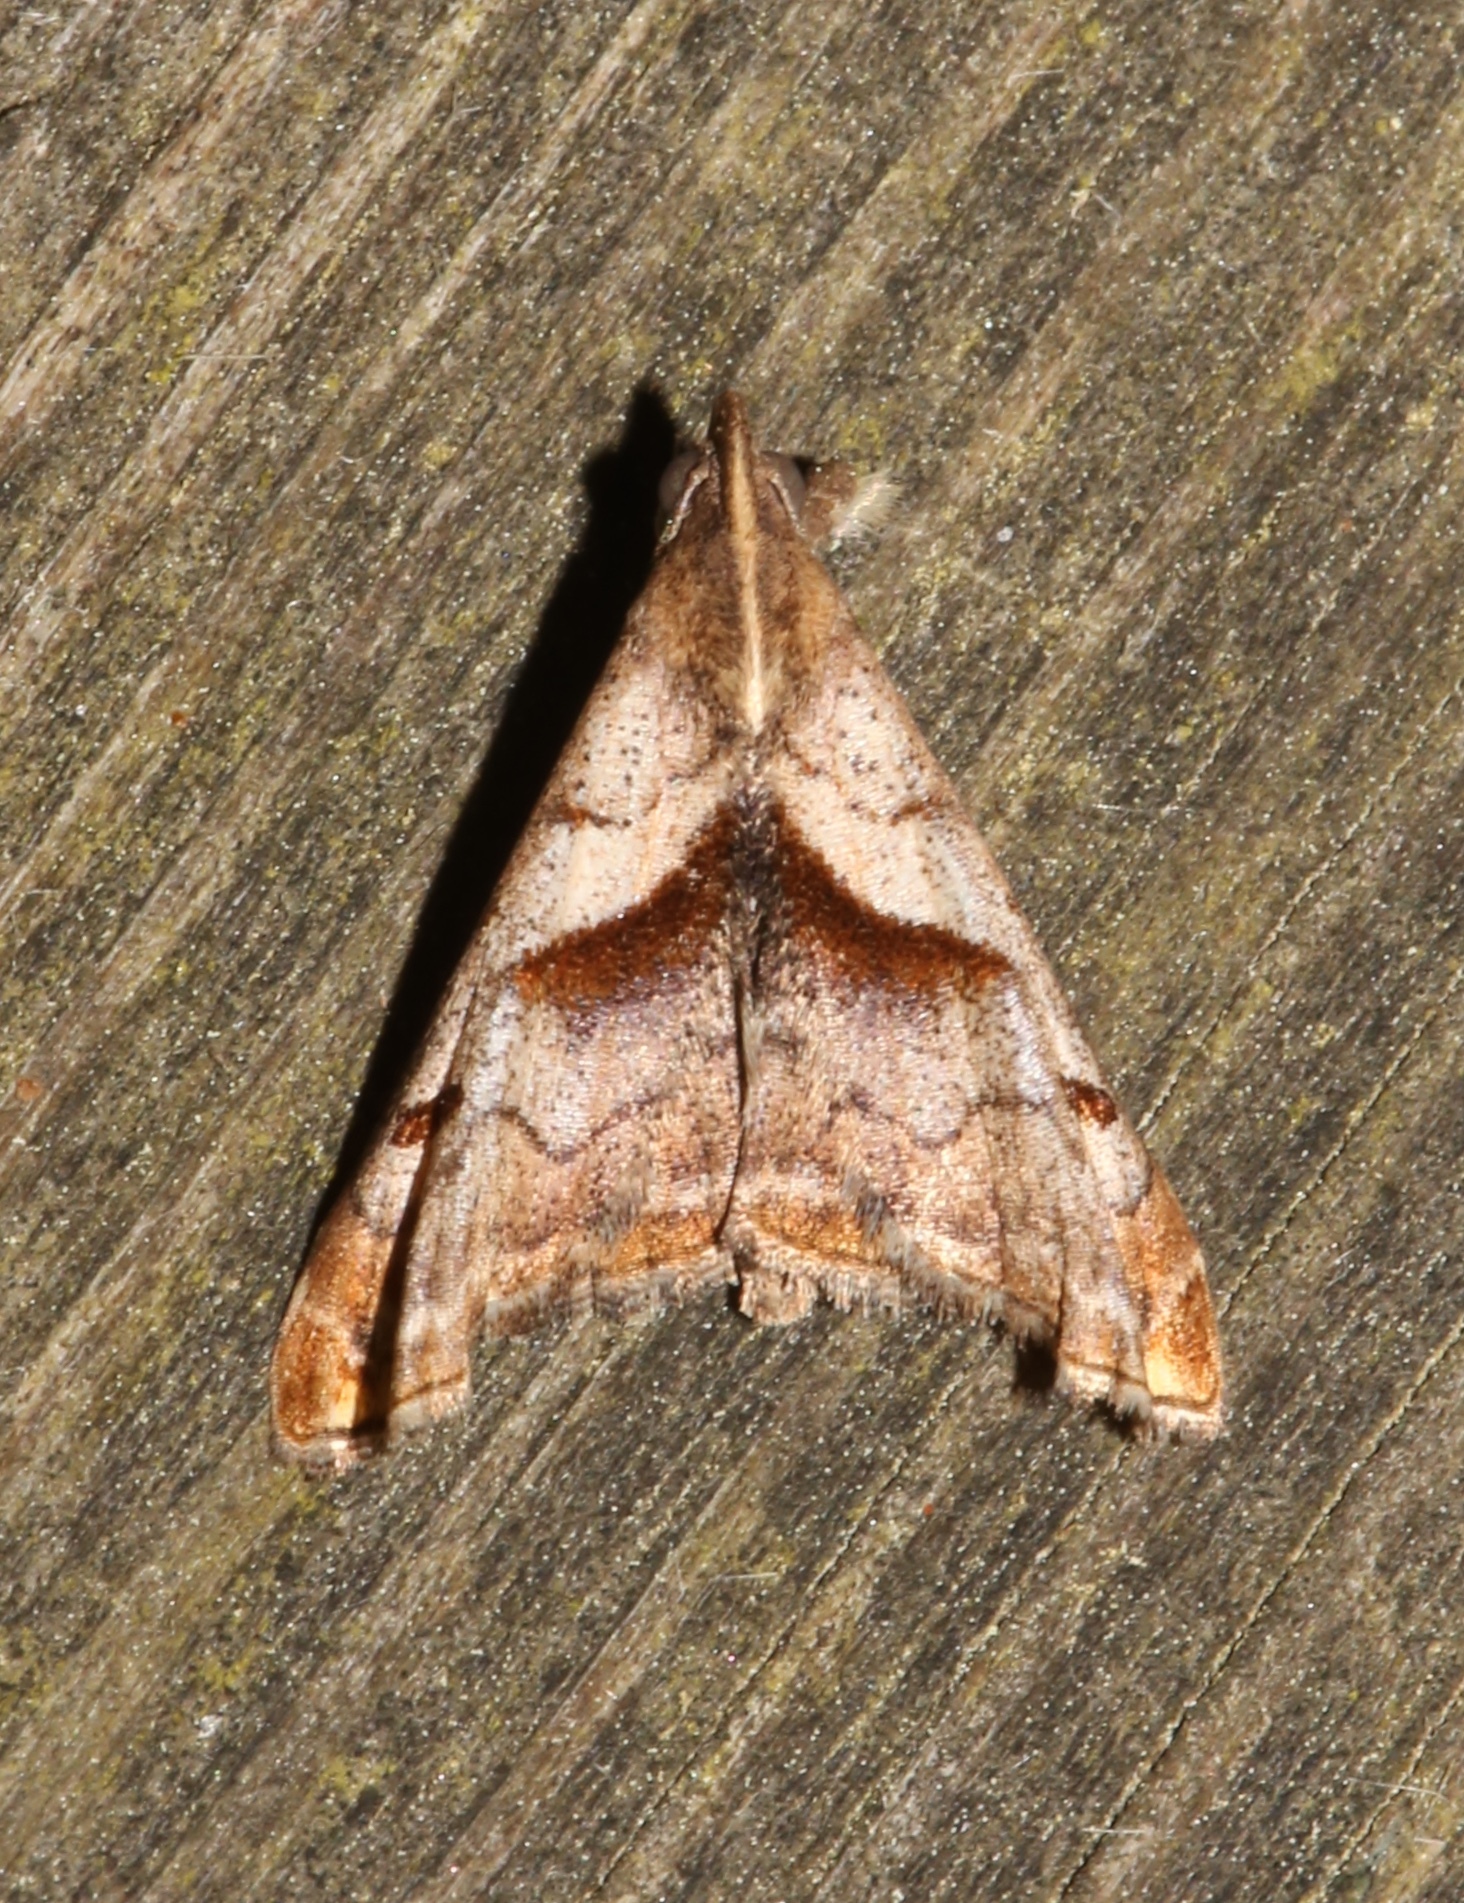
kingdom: Animalia
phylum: Arthropoda
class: Insecta
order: Lepidoptera
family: Erebidae
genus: Palthis
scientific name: Palthis angulalis
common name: Dark-spotted palthis moth
